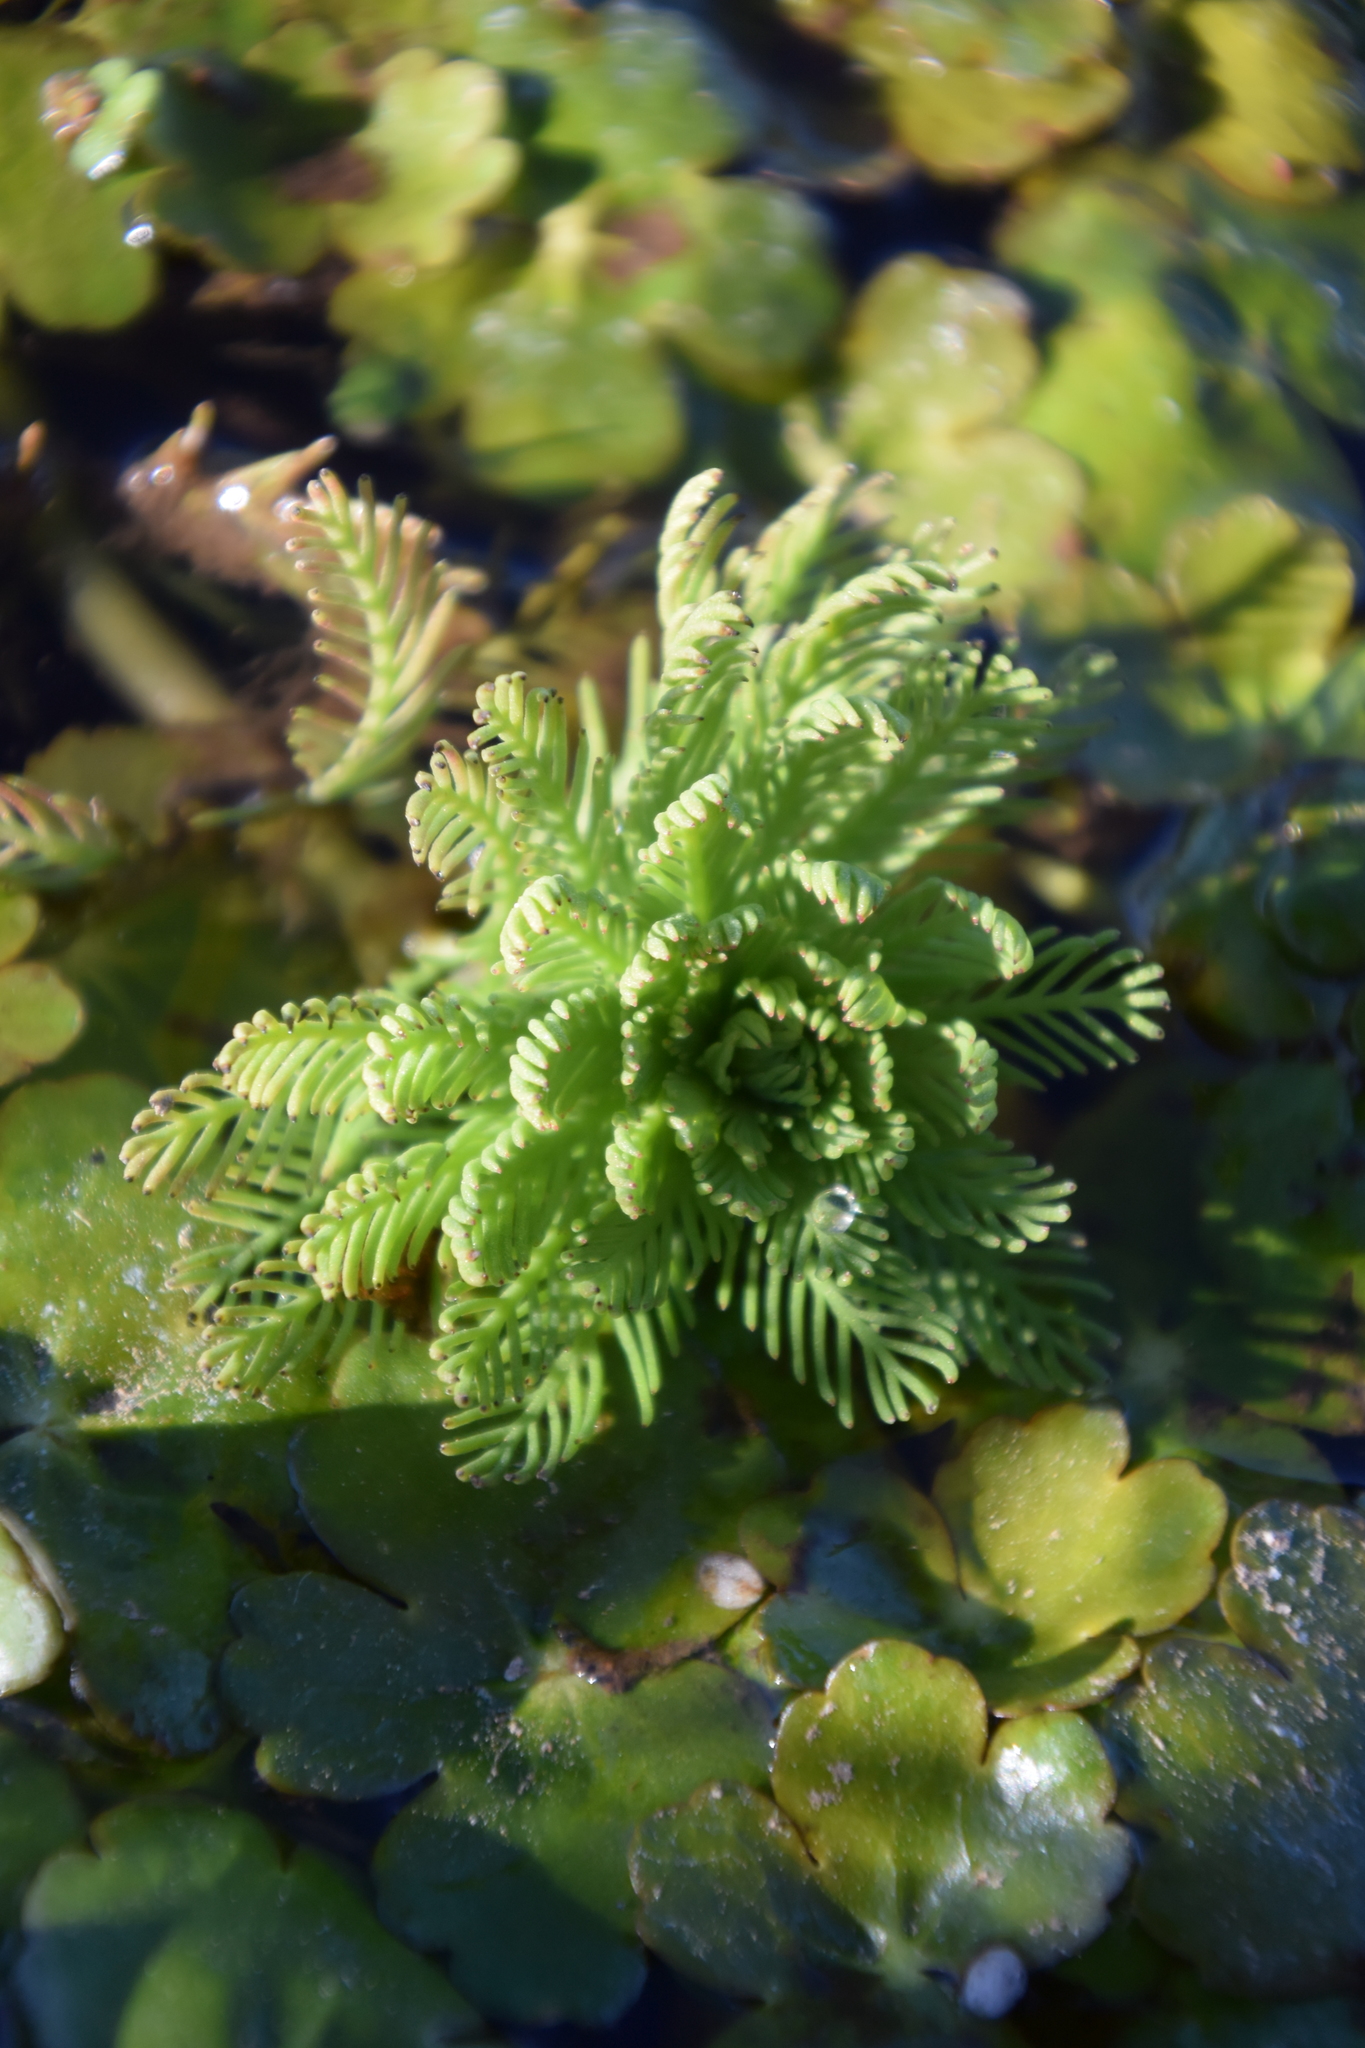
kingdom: Plantae
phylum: Tracheophyta
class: Magnoliopsida
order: Saxifragales
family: Haloragaceae
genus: Myriophyllum
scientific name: Myriophyllum aquaticum
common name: Parrot's feather
